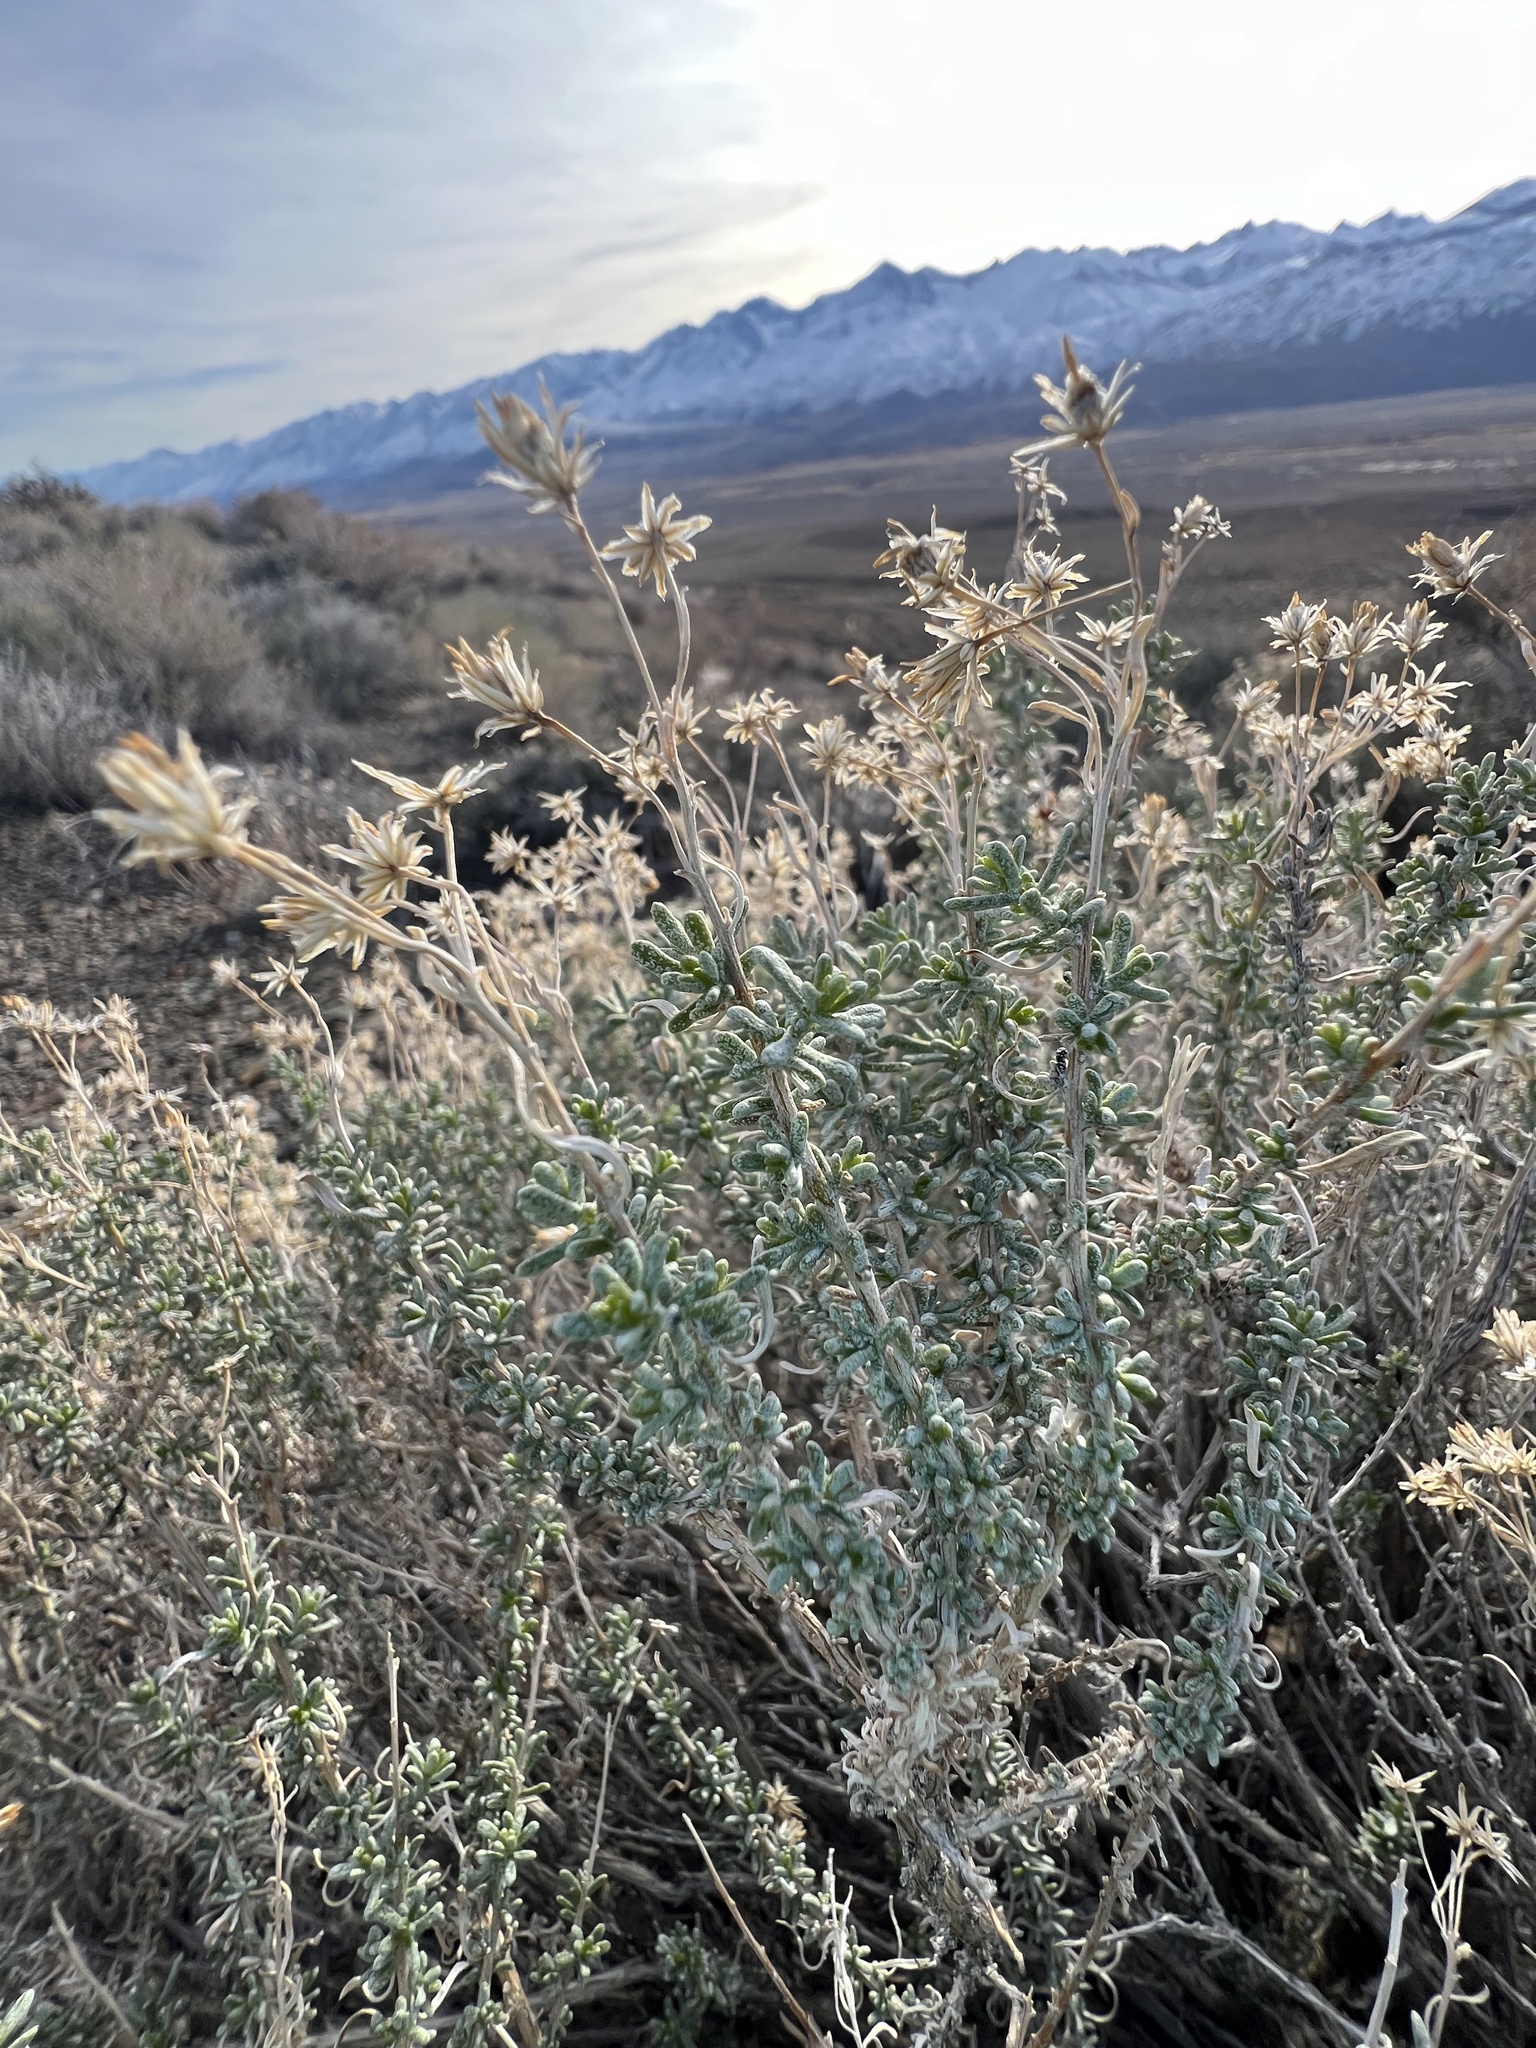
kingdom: Plantae
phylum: Tracheophyta
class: Magnoliopsida
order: Asterales
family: Asteraceae
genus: Ericameria
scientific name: Ericameria cooperi
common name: Cooper's goldenbush
